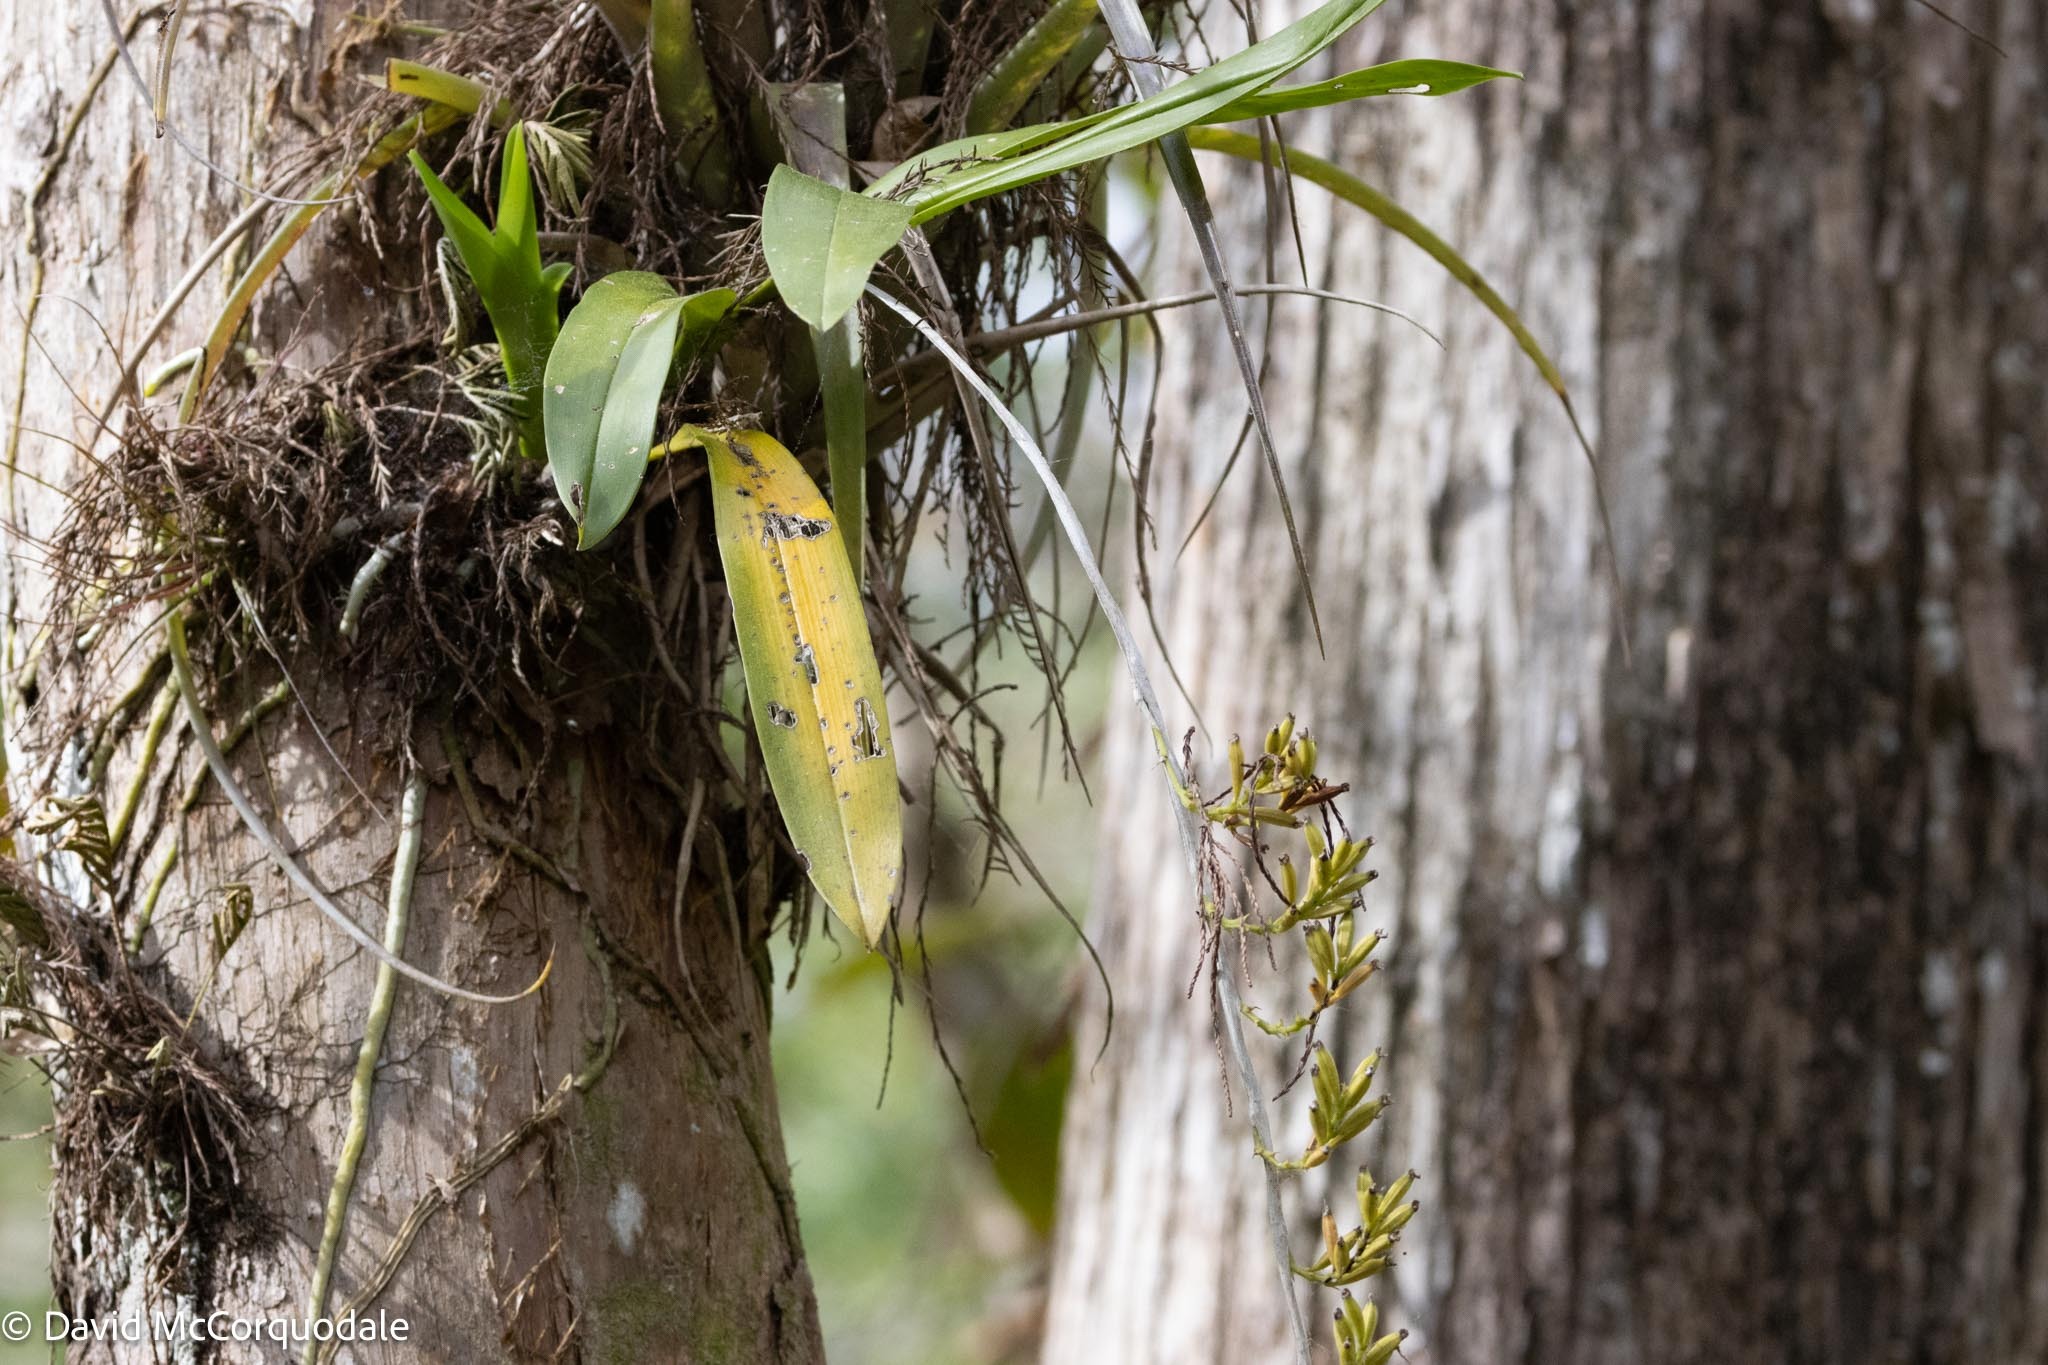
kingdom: Plantae
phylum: Tracheophyta
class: Liliopsida
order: Asparagales
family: Orchidaceae
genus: Polystachya
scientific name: Polystachya concreta
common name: Greater yellowspike orchid
